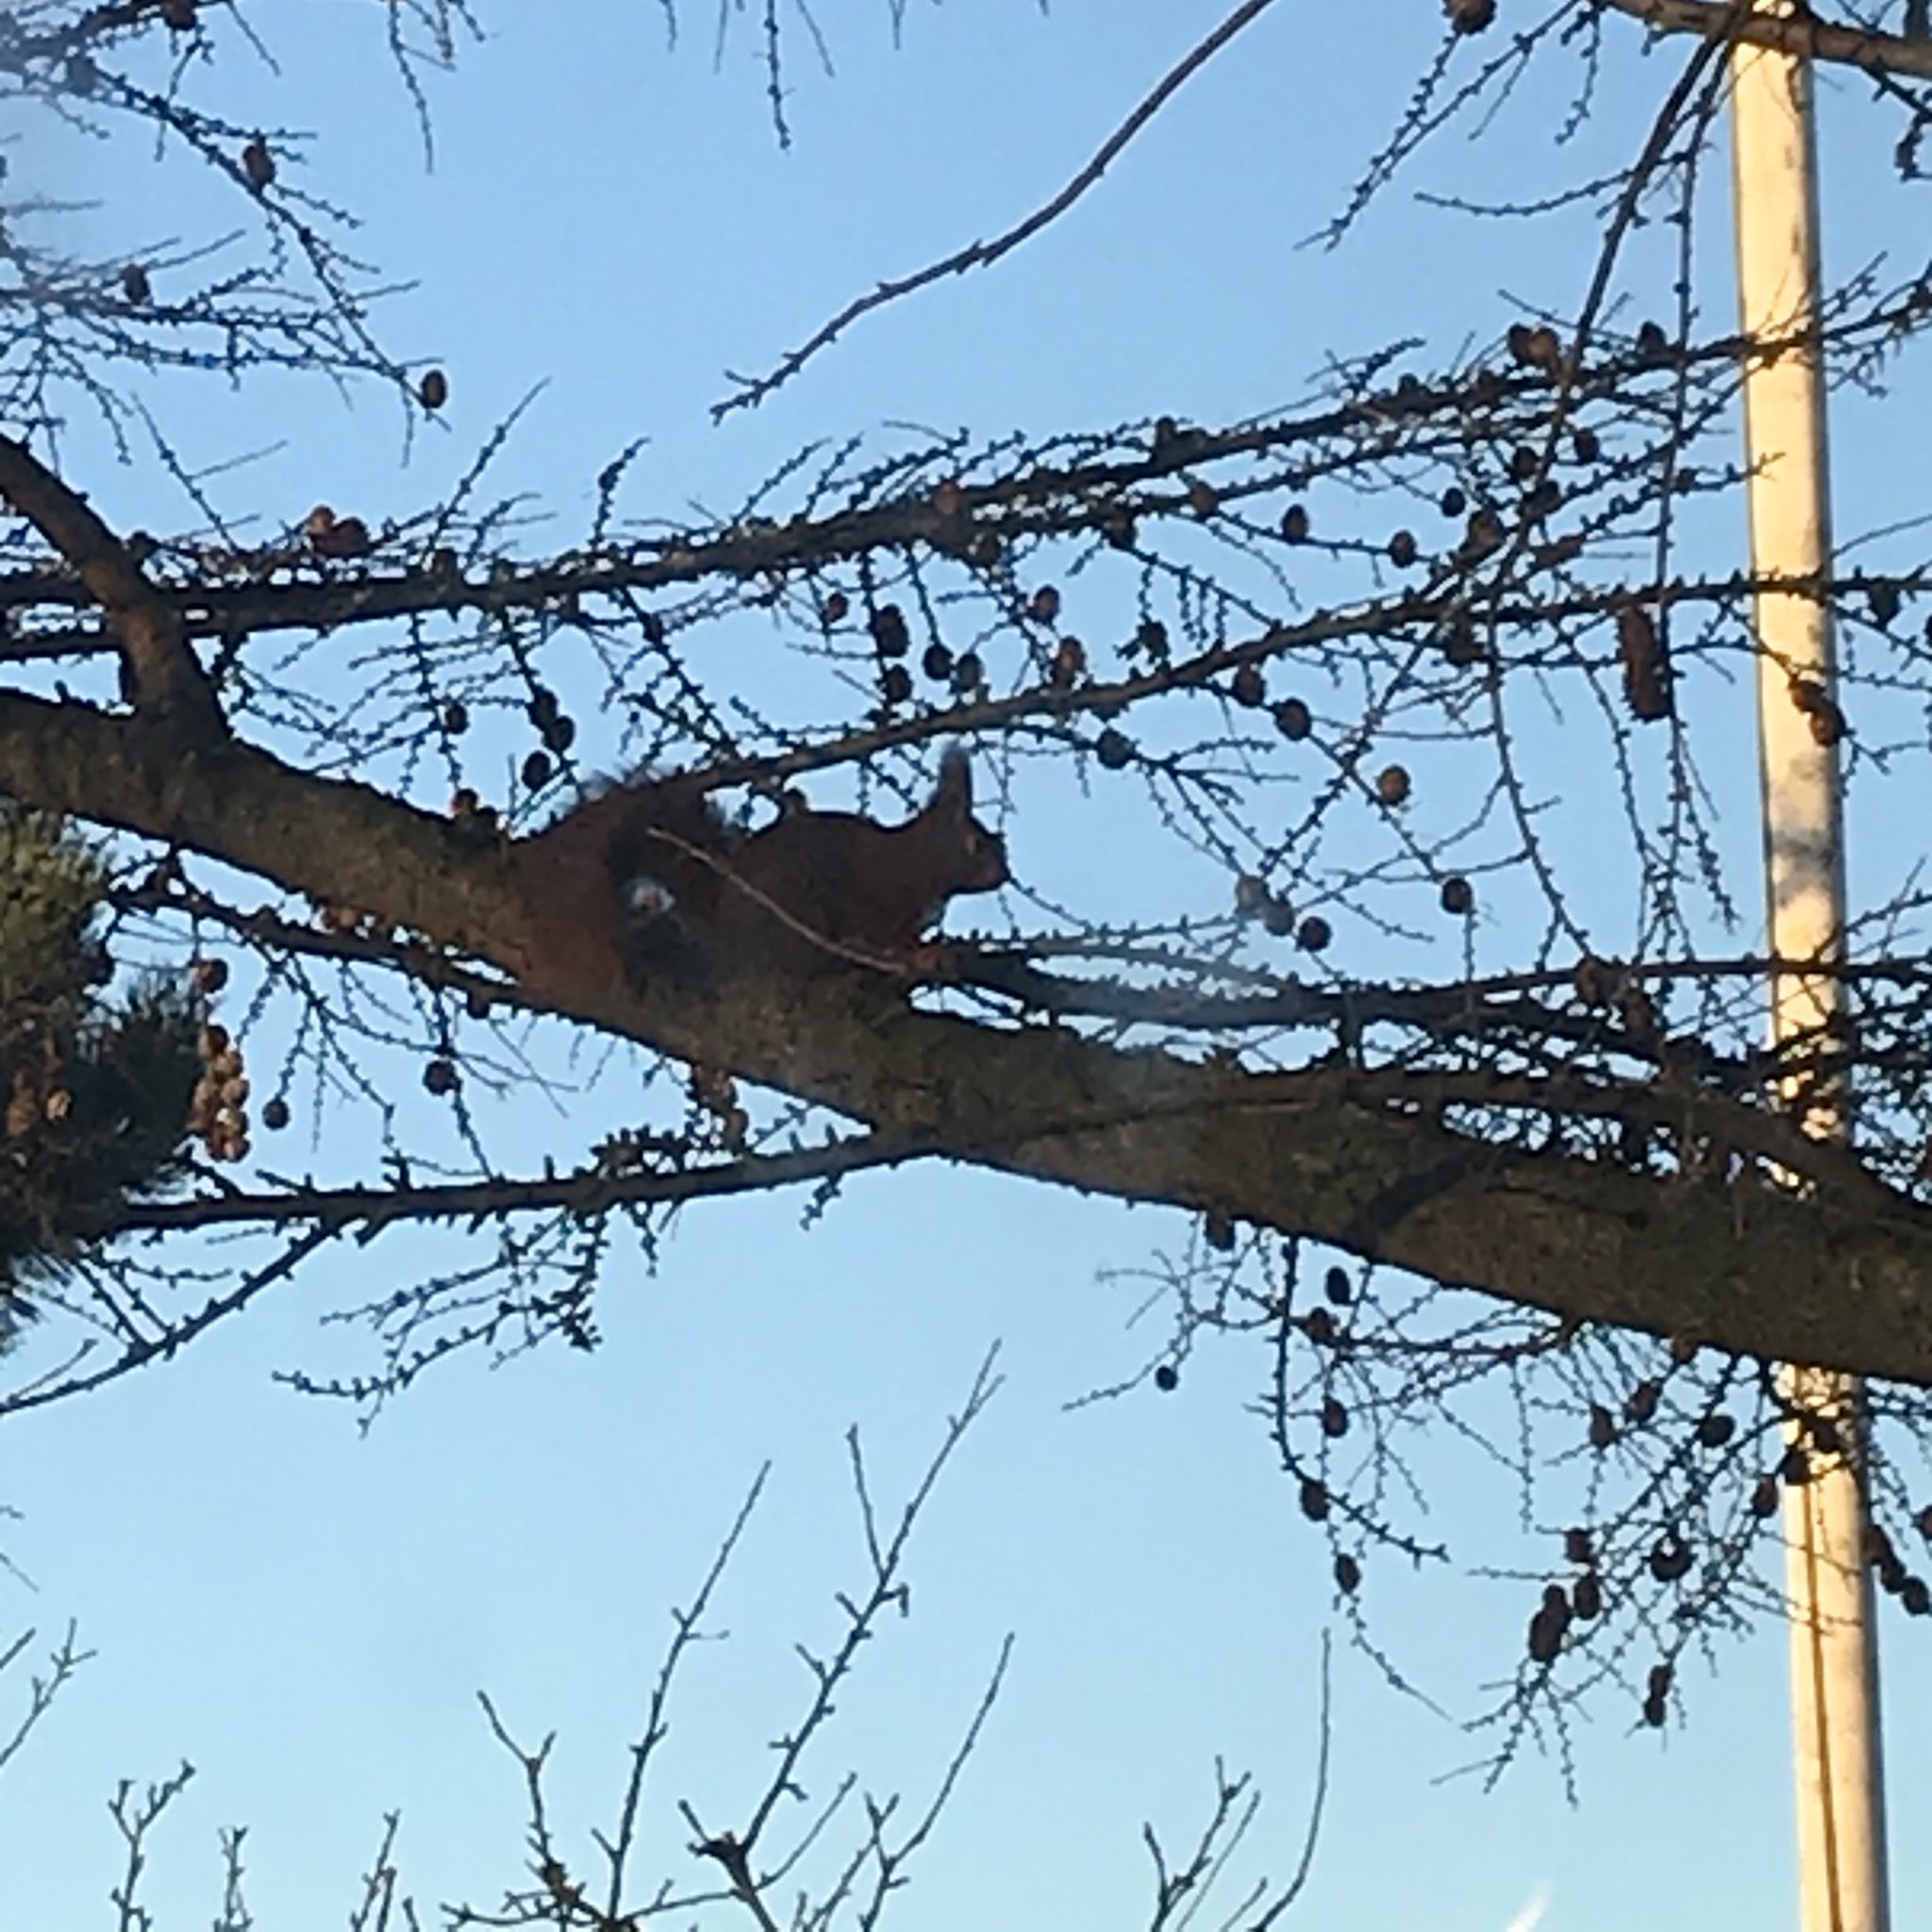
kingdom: Animalia
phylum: Chordata
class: Mammalia
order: Rodentia
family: Sciuridae
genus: Sciurus
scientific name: Sciurus vulgaris
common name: Eurasian red squirrel
